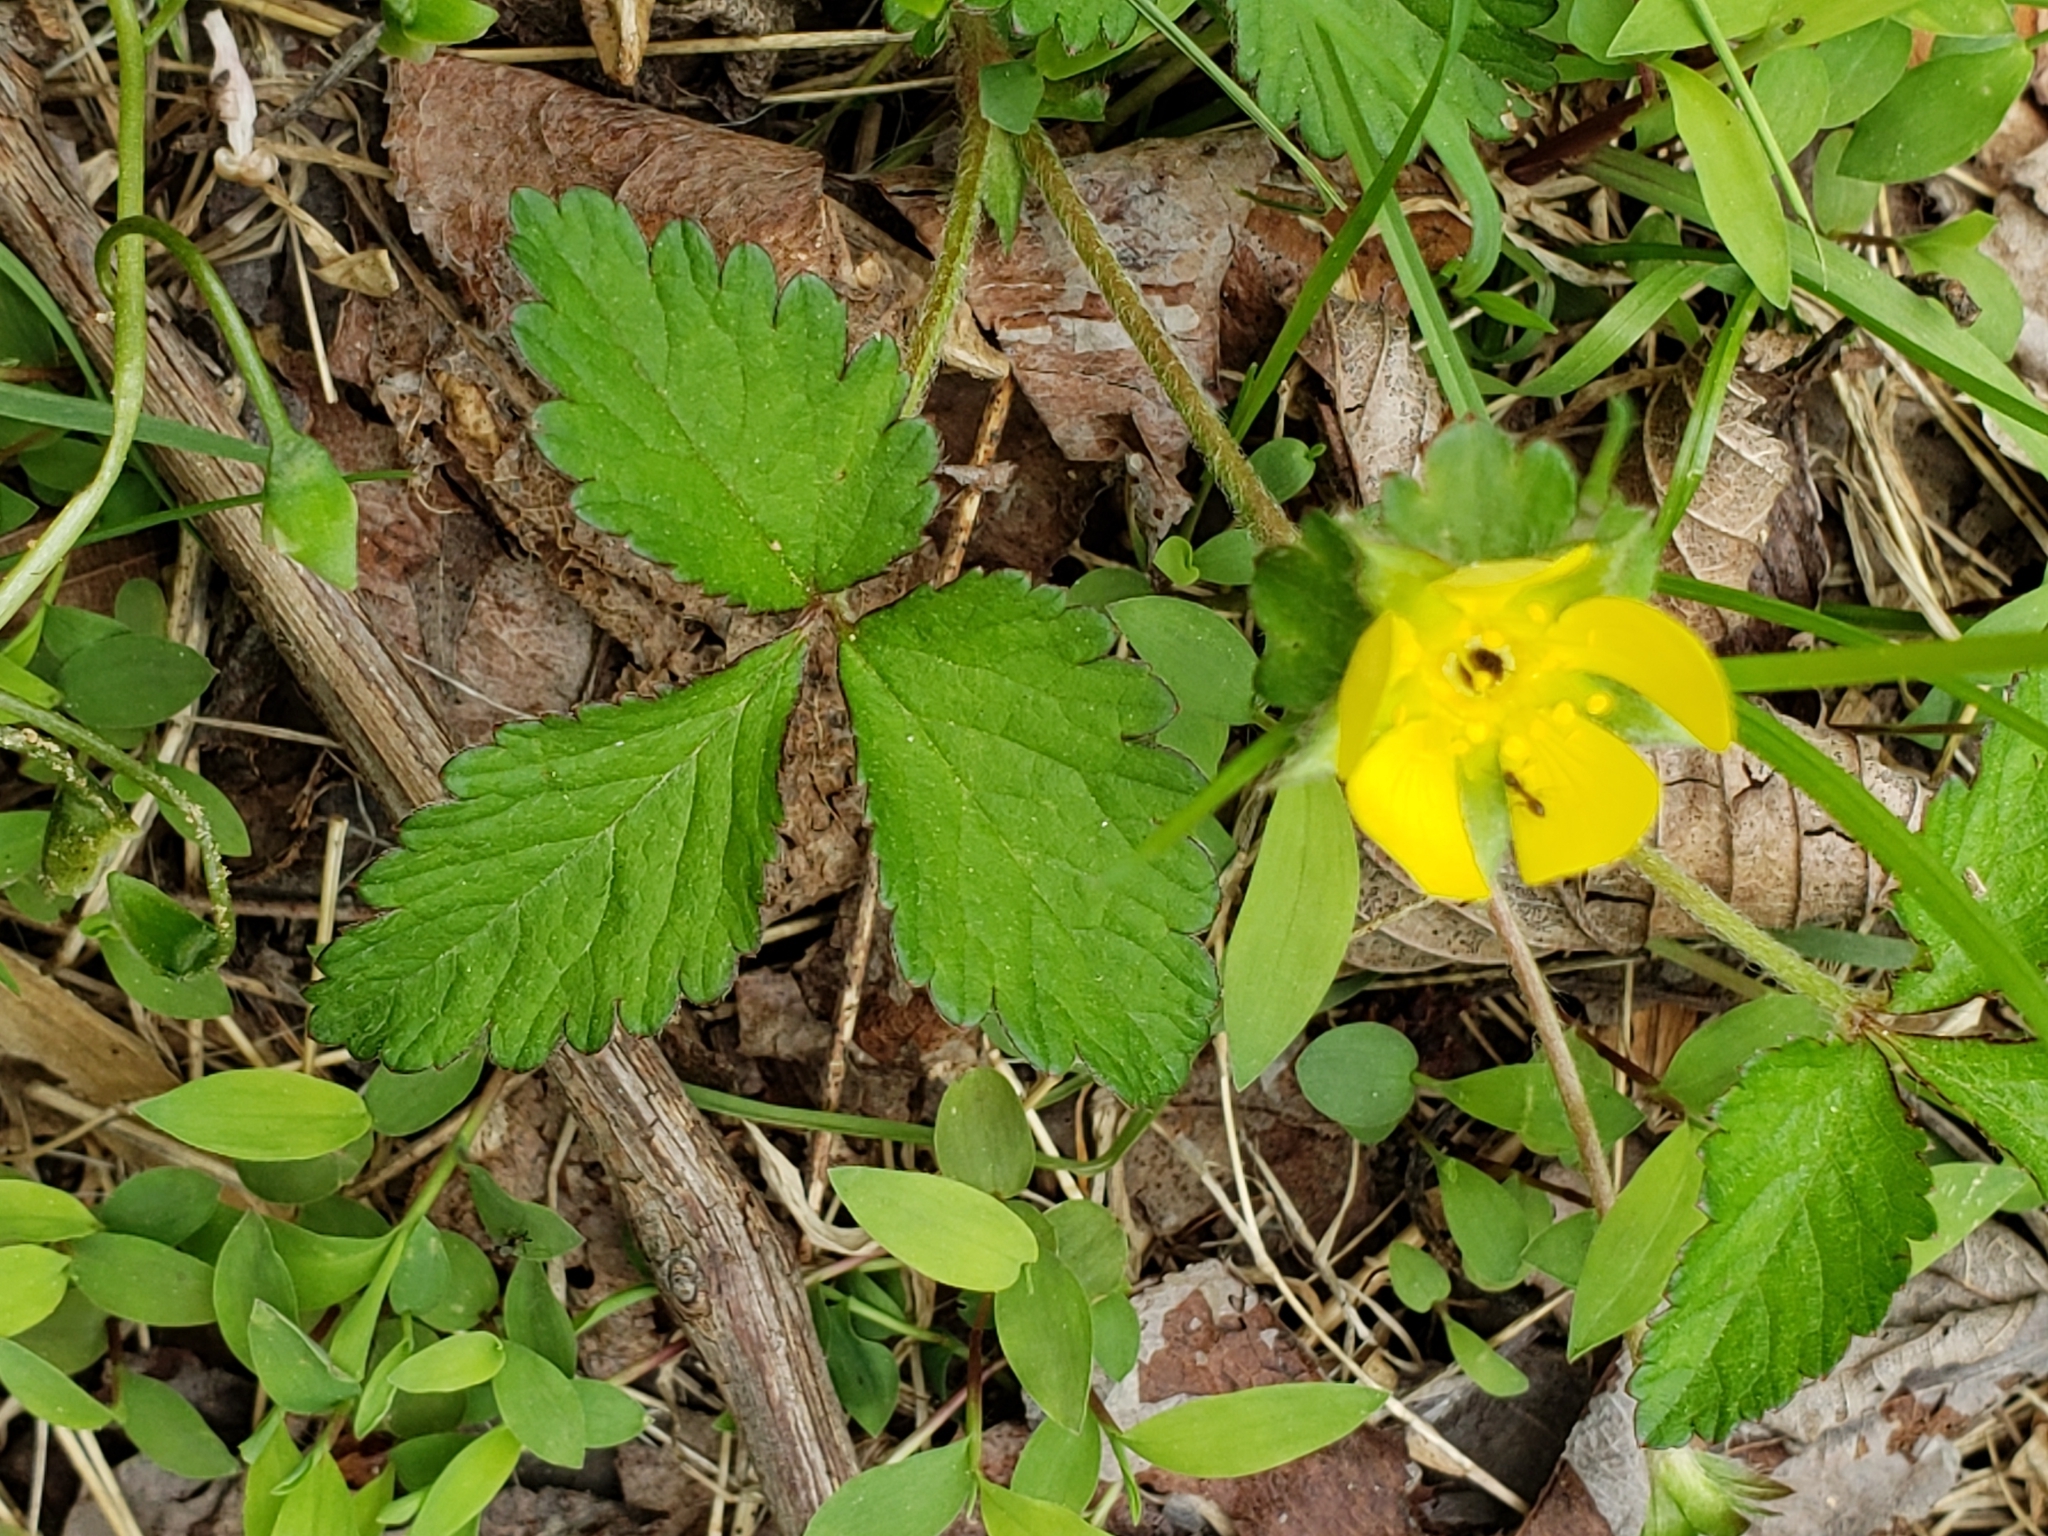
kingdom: Plantae
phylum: Tracheophyta
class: Magnoliopsida
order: Rosales
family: Rosaceae
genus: Potentilla
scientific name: Potentilla indica
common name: Yellow-flowered strawberry
